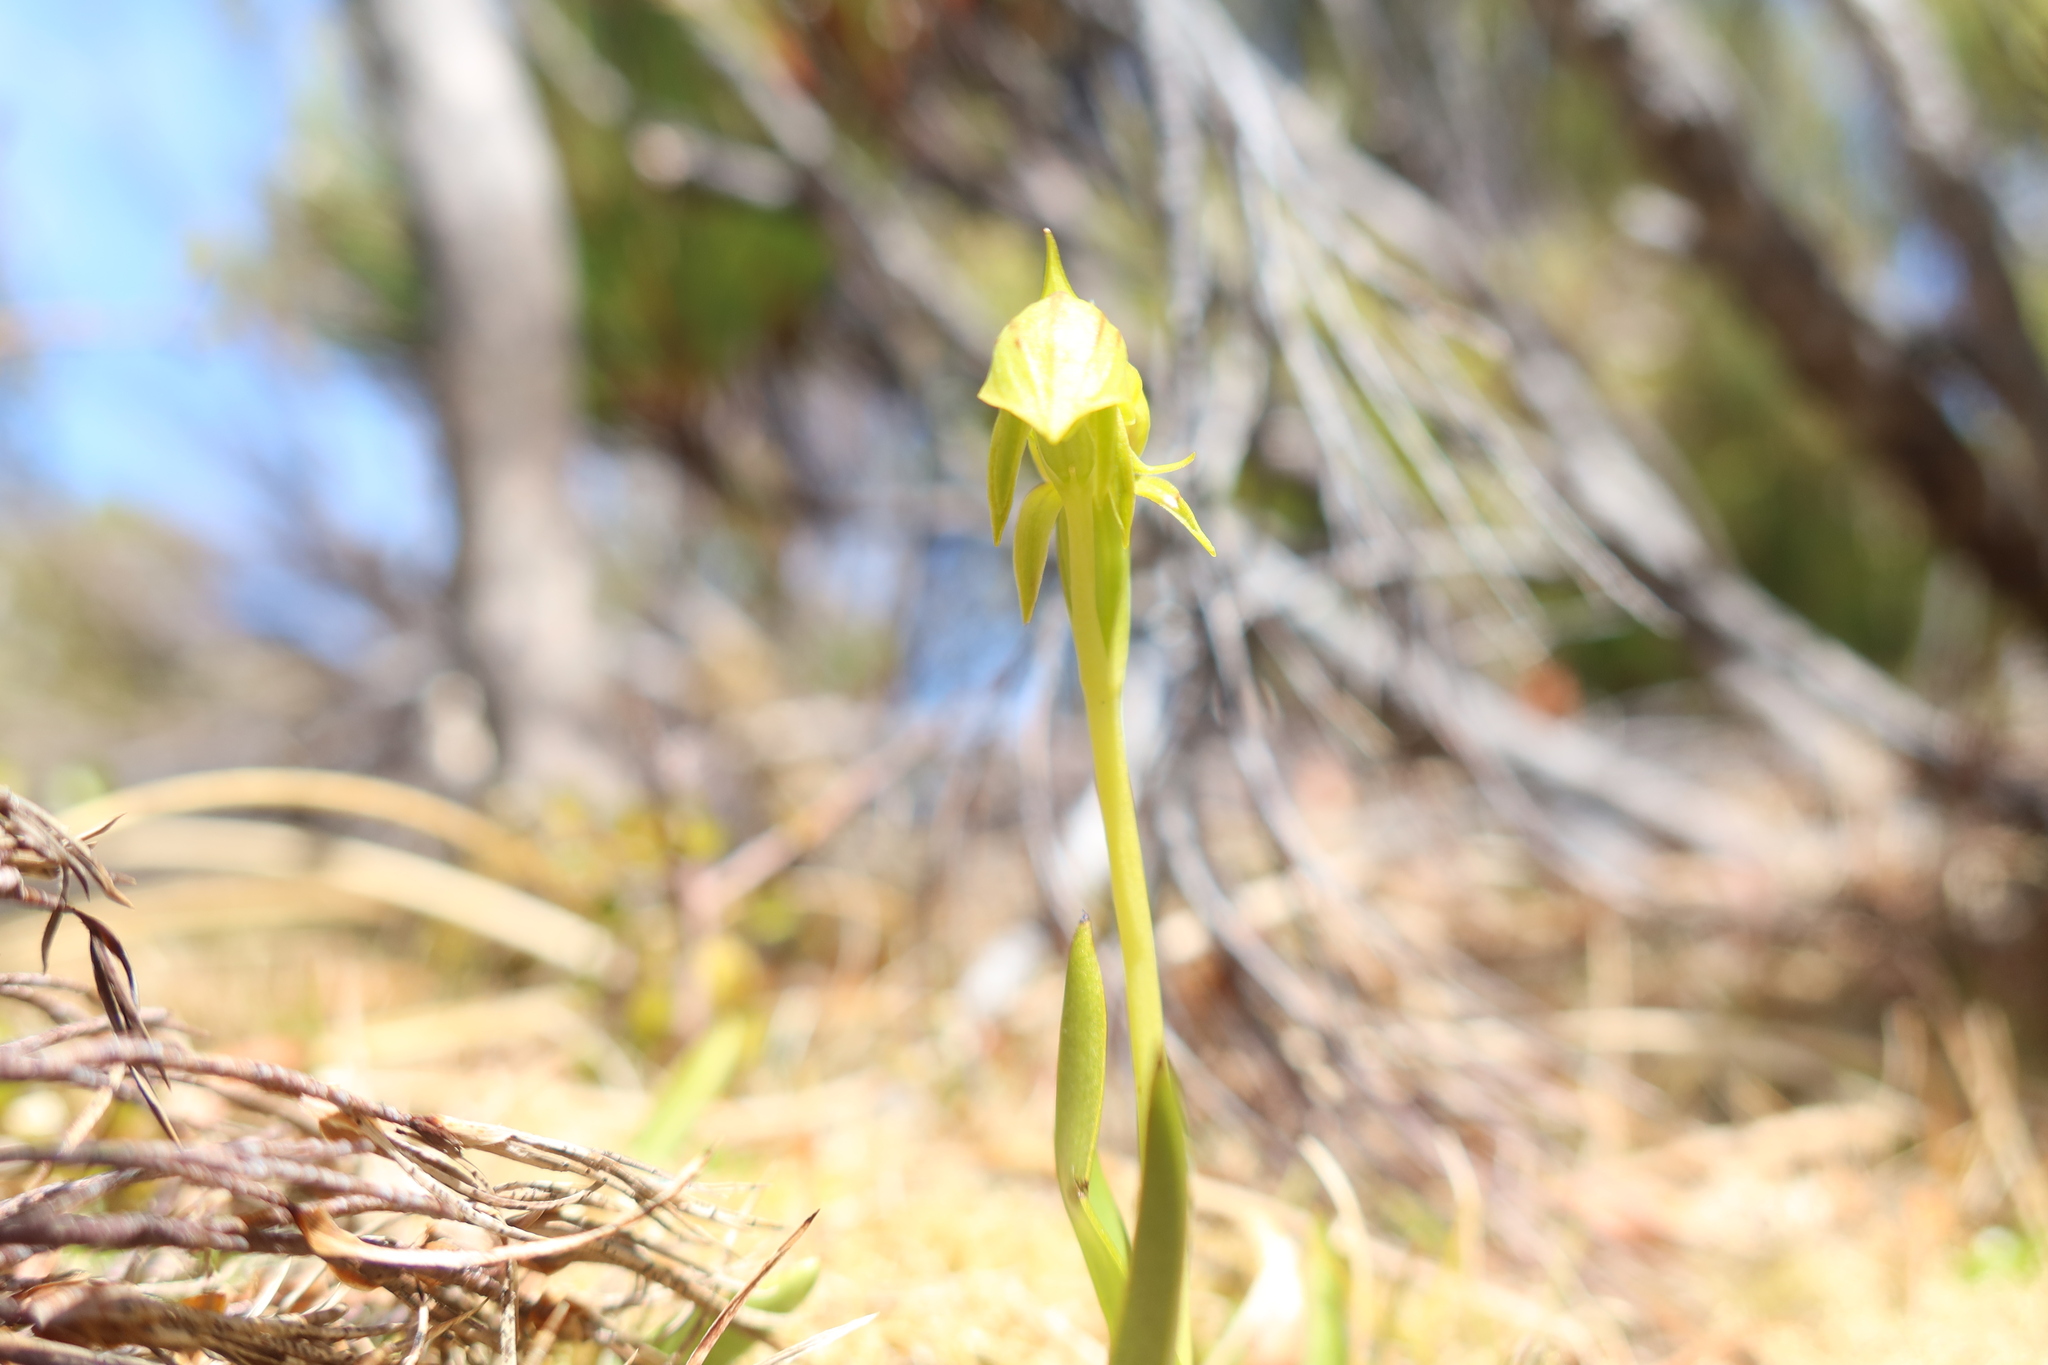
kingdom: Plantae
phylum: Tracheophyta
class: Liliopsida
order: Asparagales
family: Orchidaceae
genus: Waireia
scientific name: Waireia stenopetala
